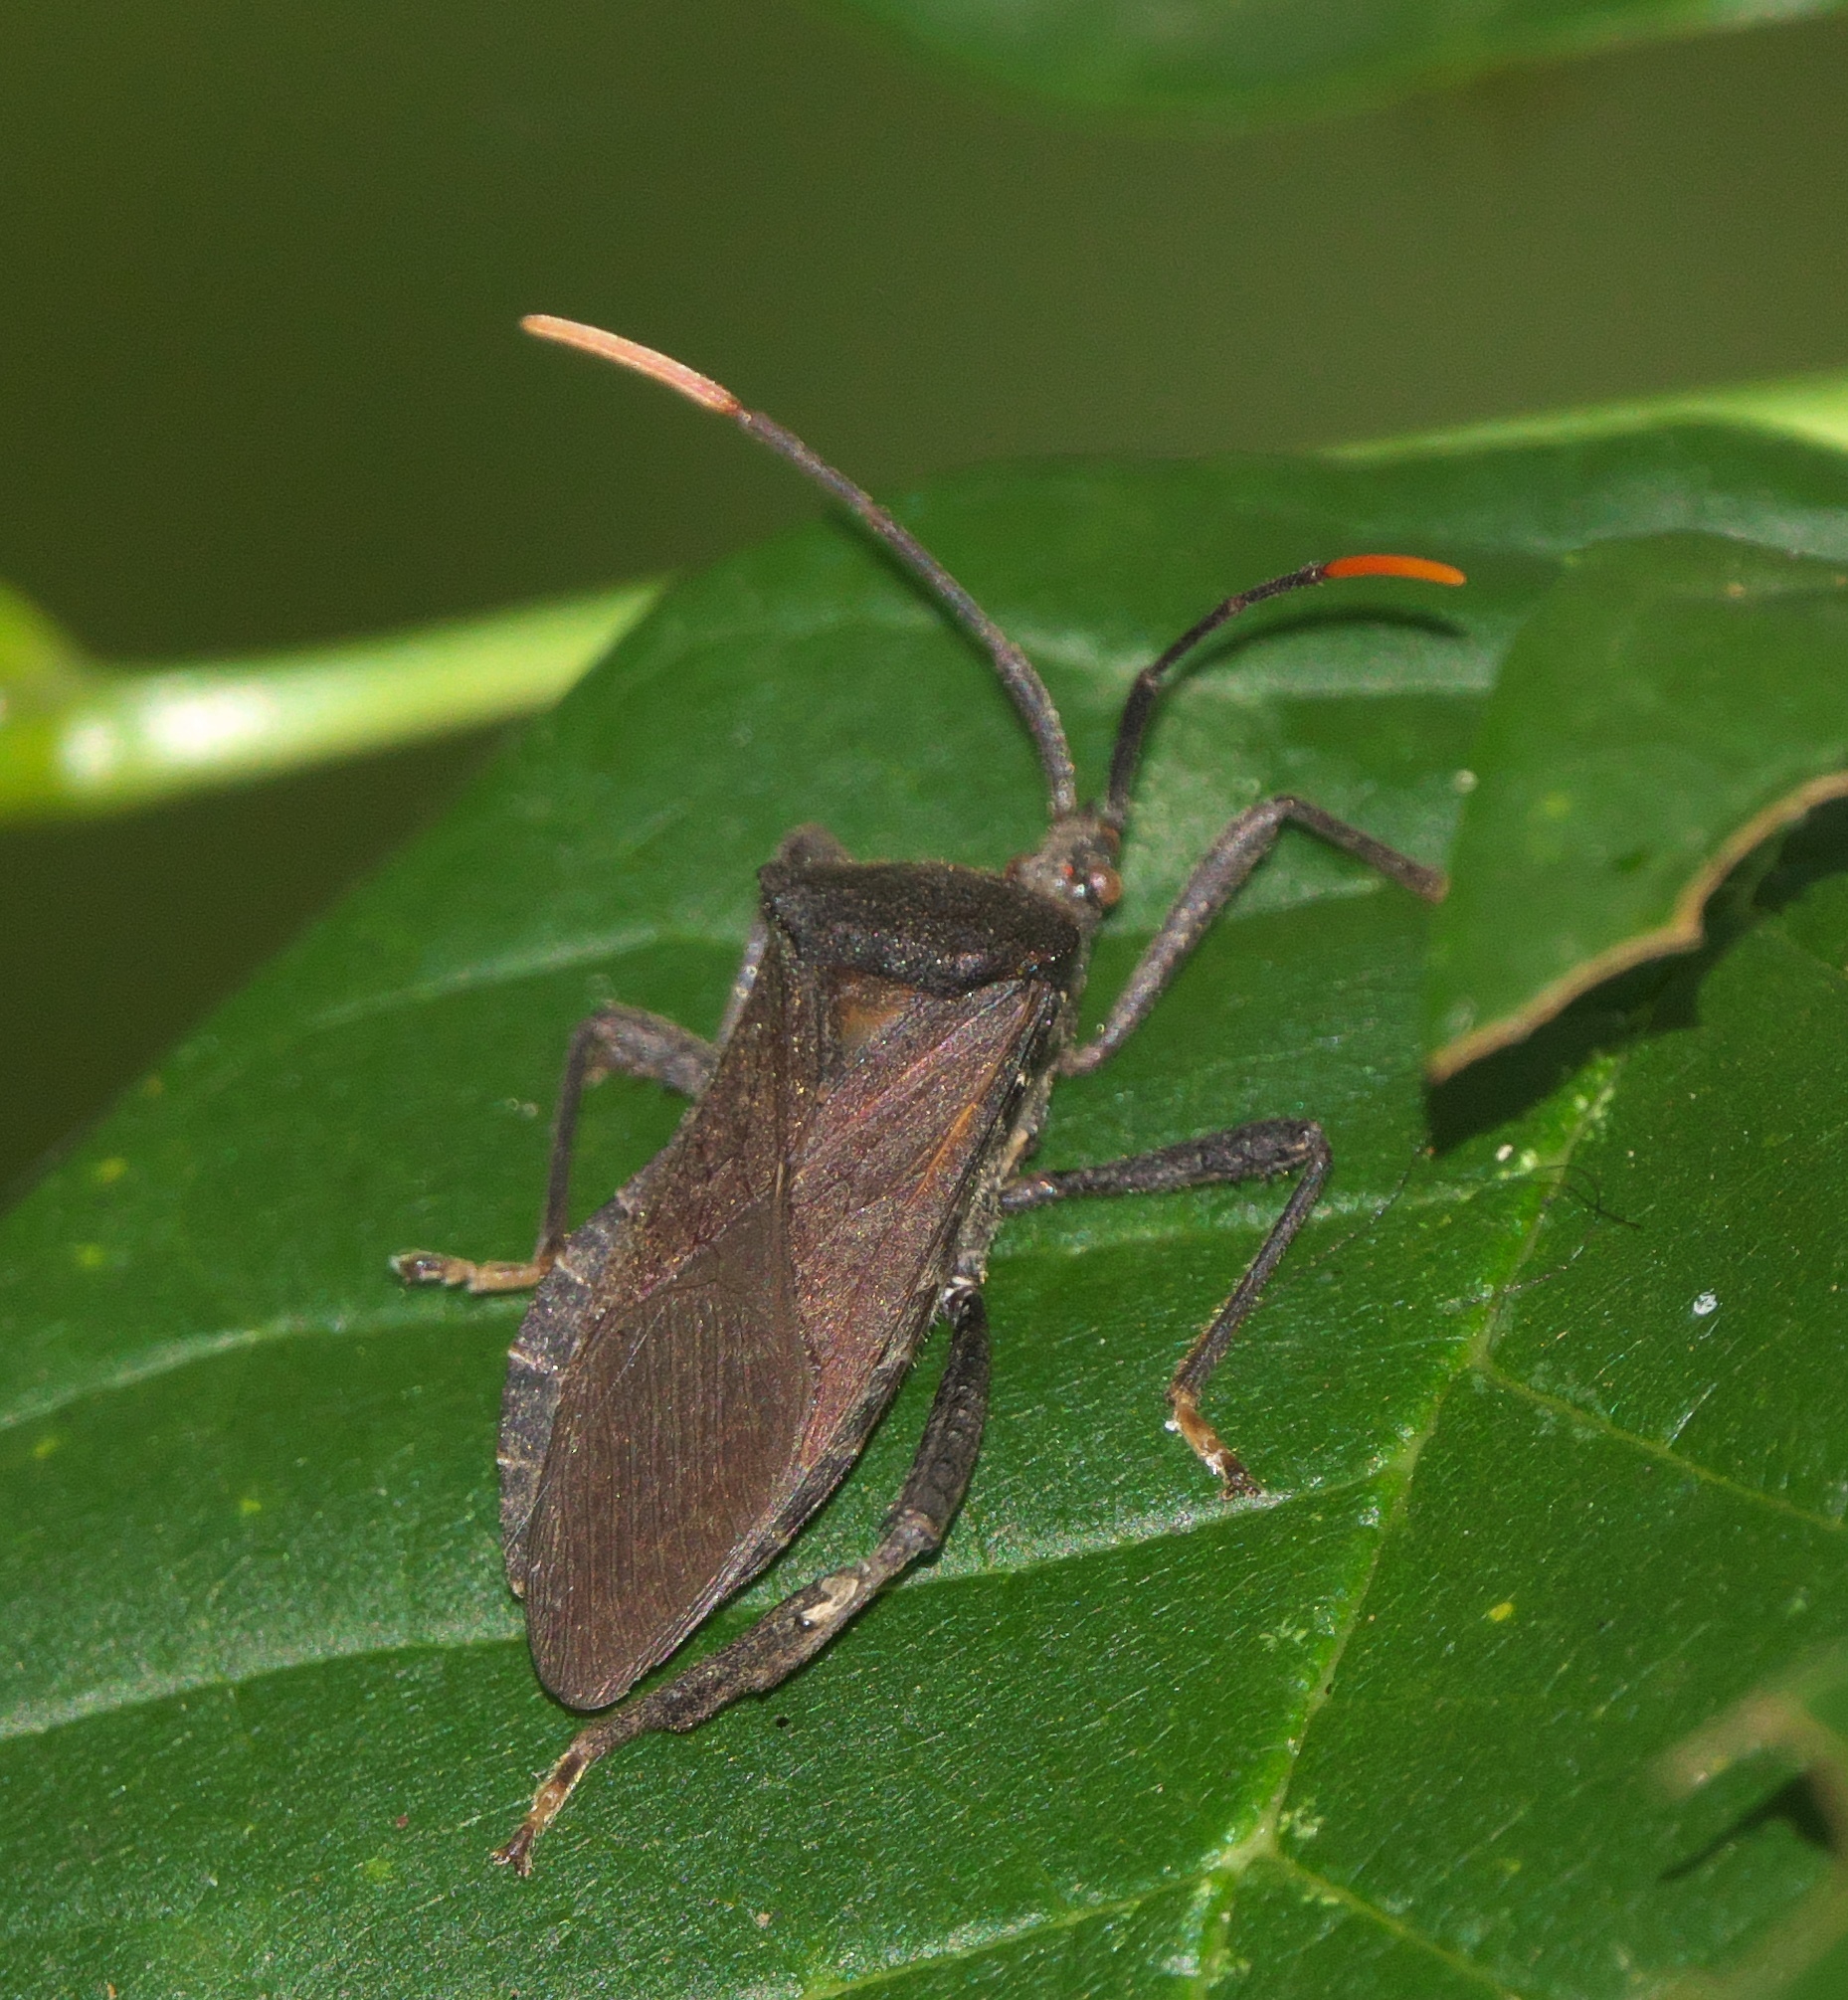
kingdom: Animalia
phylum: Arthropoda
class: Insecta
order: Hemiptera
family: Coreidae
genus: Acanthocephala
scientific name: Acanthocephala terminalis
